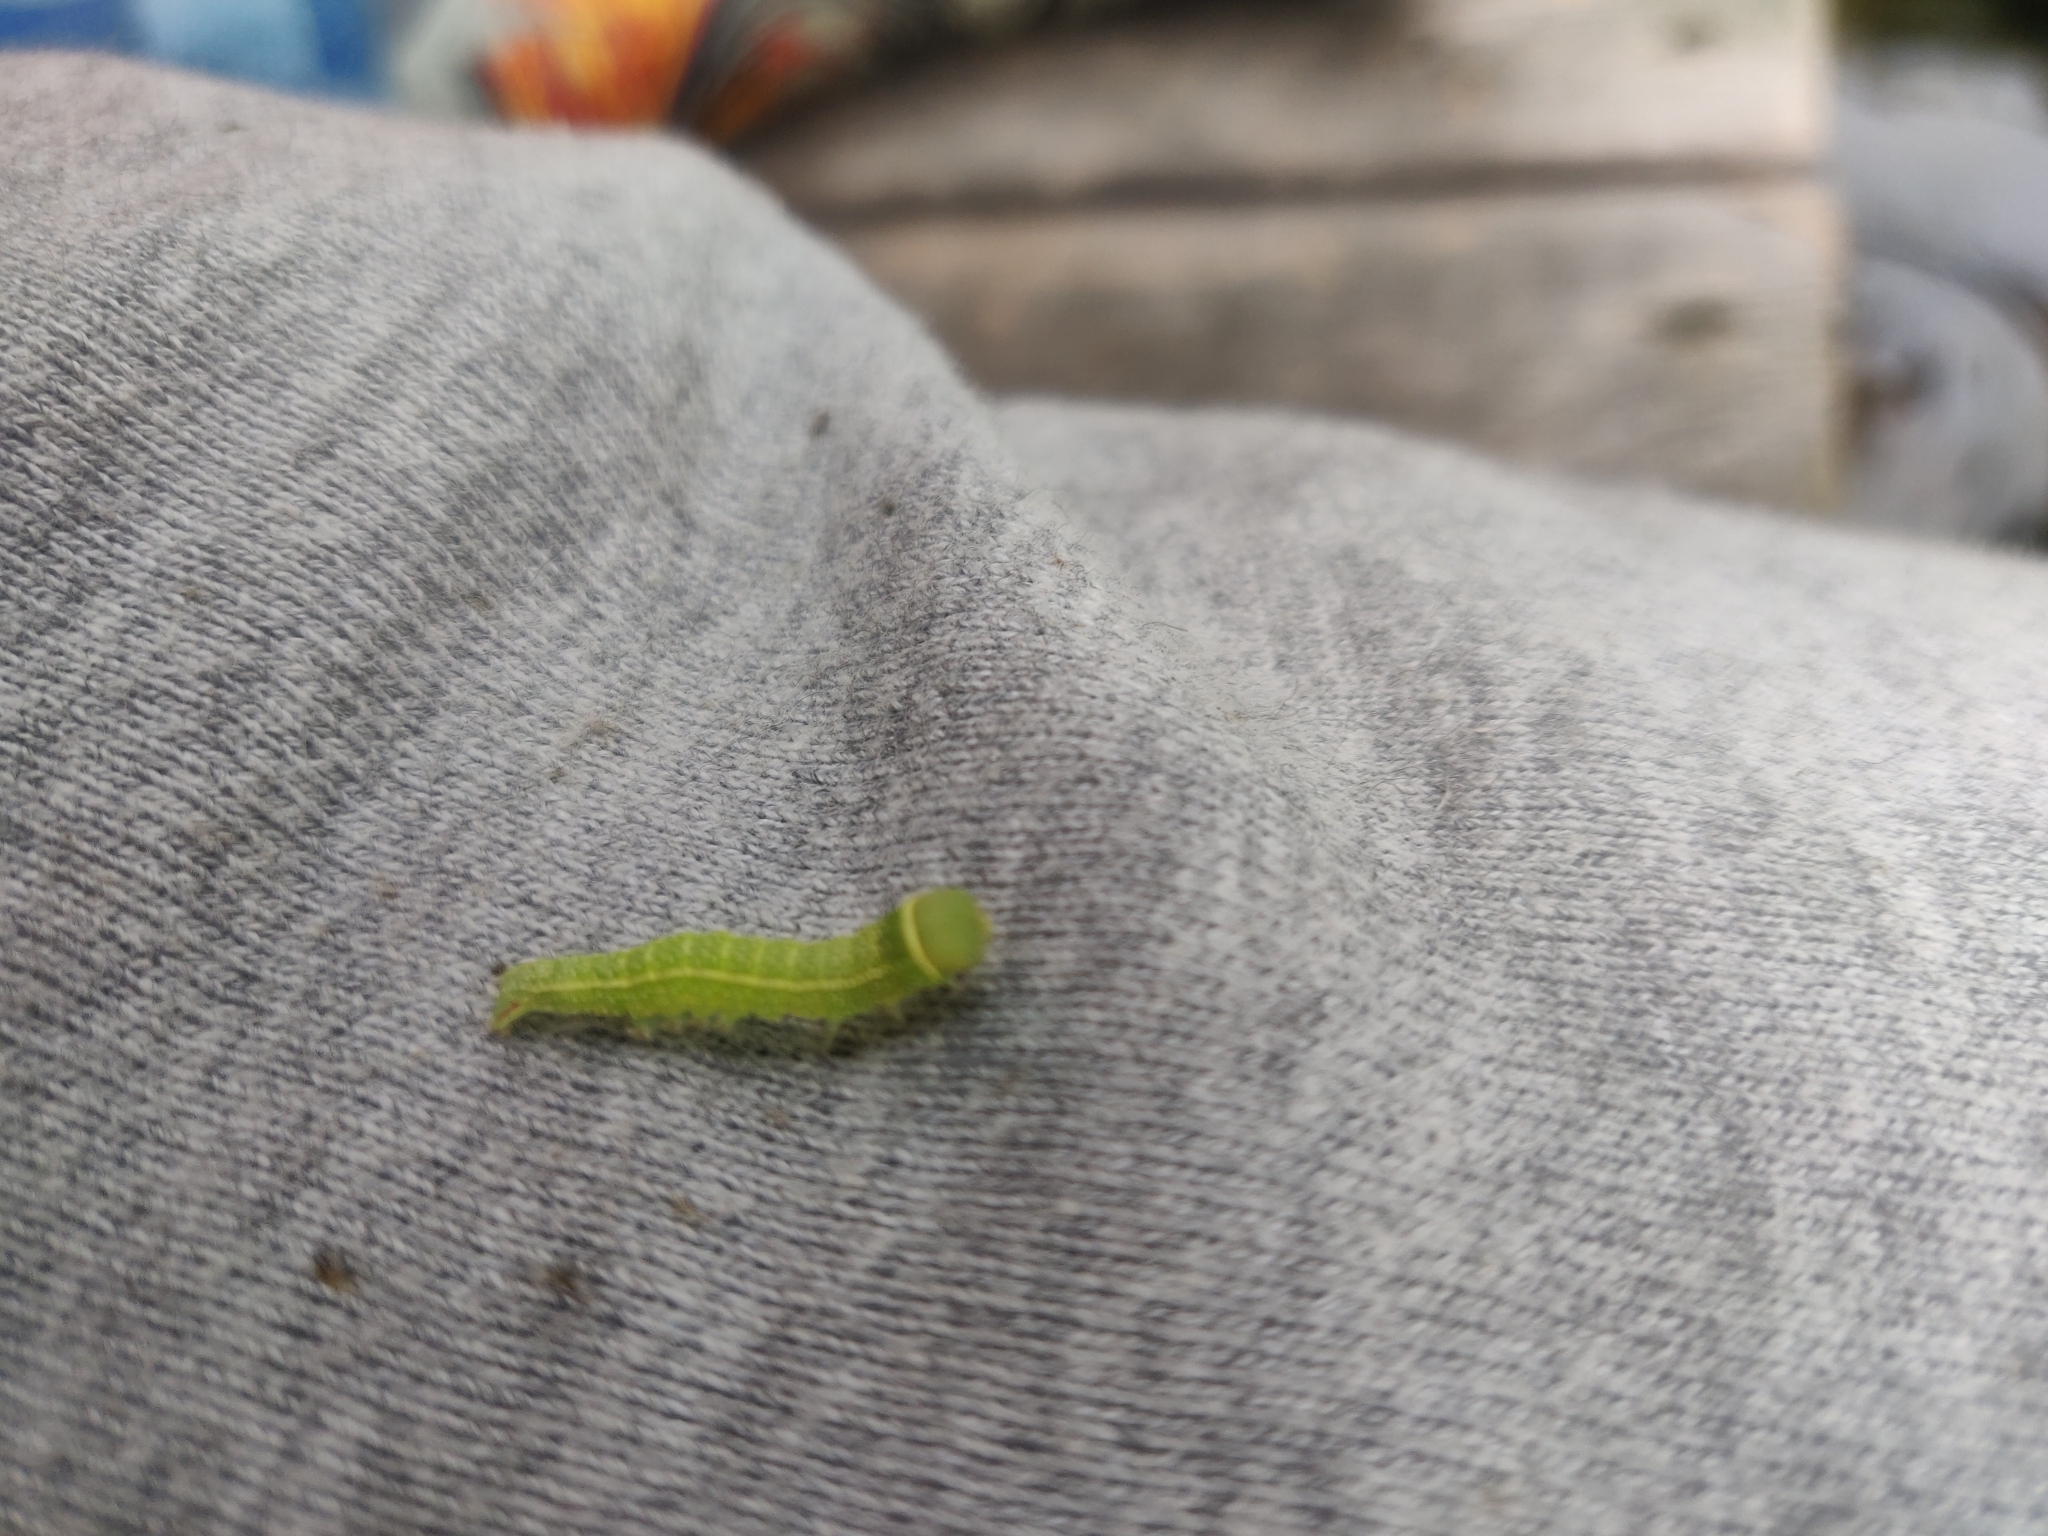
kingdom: Animalia
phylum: Arthropoda
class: Insecta
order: Lepidoptera
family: Nolidae
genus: Pseudoips
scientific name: Pseudoips prasinana
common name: Green silver-lines
